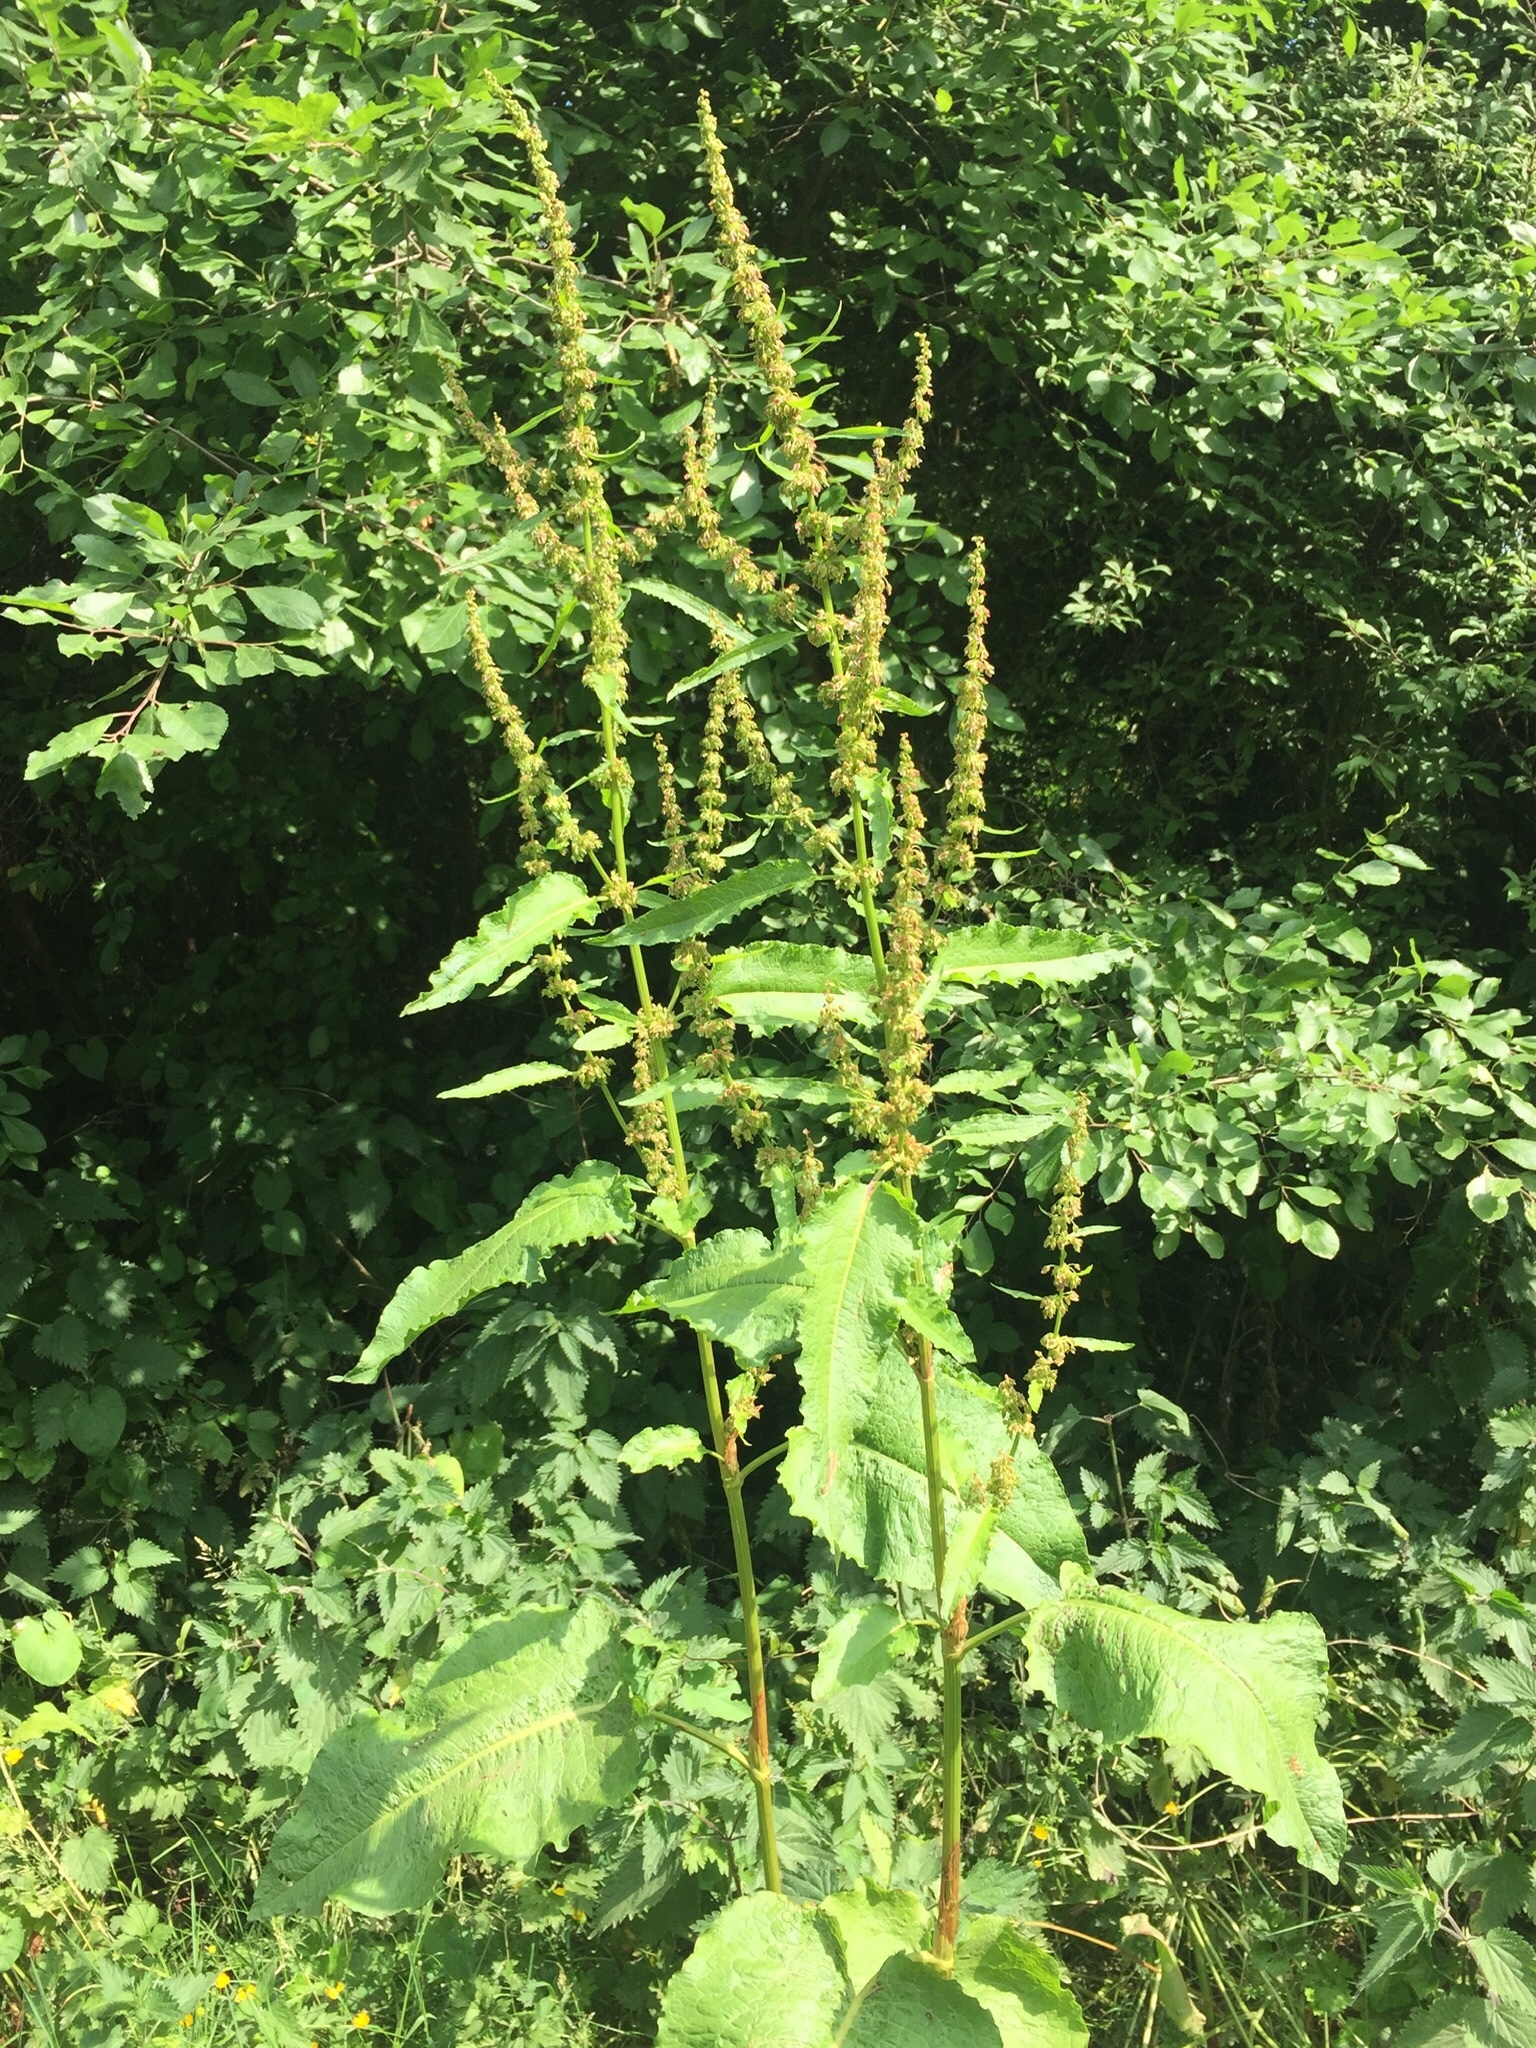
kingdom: Plantae
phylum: Tracheophyta
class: Magnoliopsida
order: Caryophyllales
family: Polygonaceae
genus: Rumex
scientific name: Rumex obtusifolius
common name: Bitter dock
